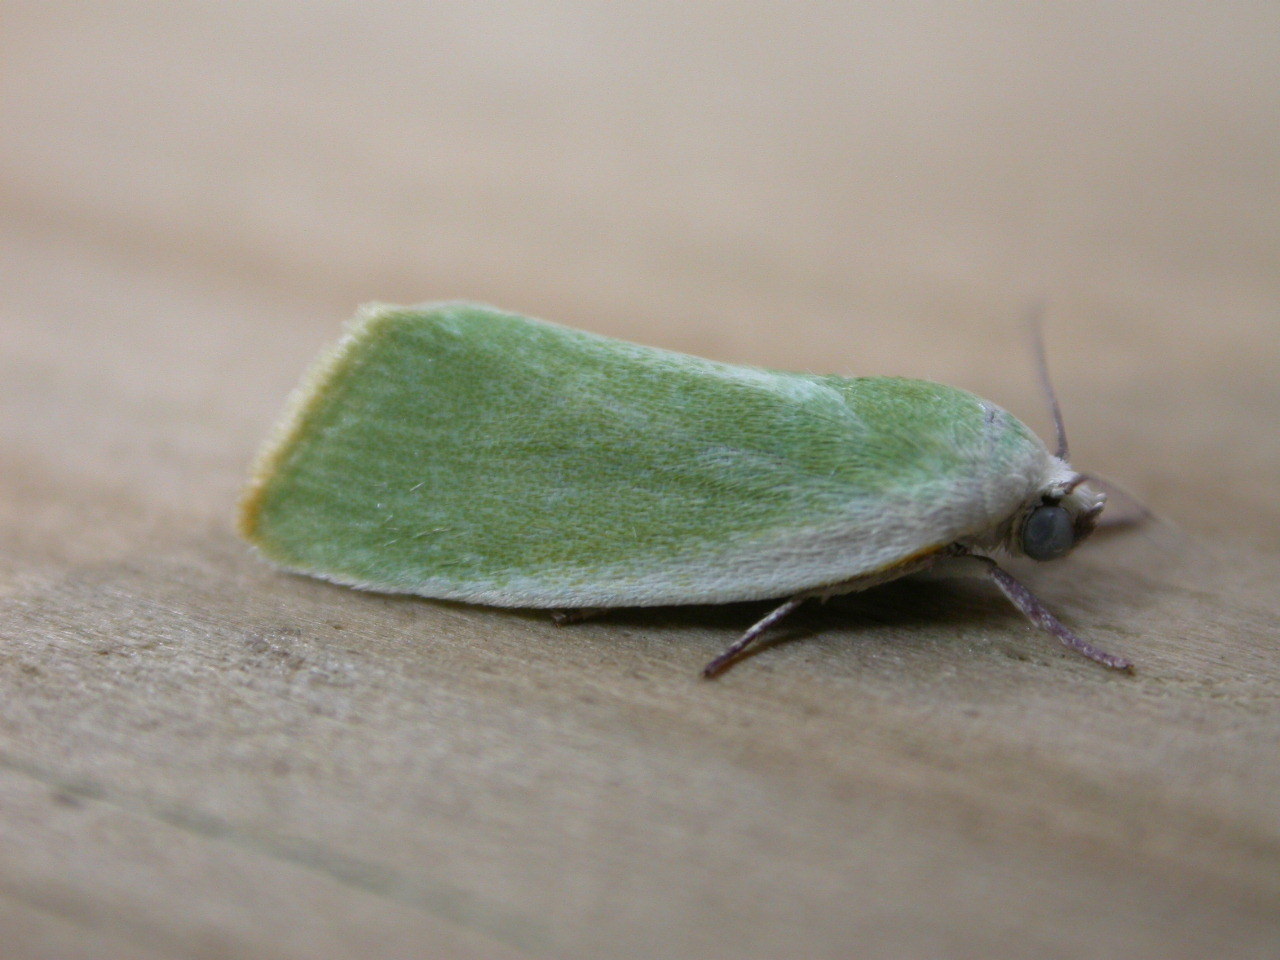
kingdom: Animalia
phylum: Arthropoda
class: Insecta
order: Lepidoptera
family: Nolidae
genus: Earias
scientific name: Earias clorana
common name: Cream-bordered green pea
